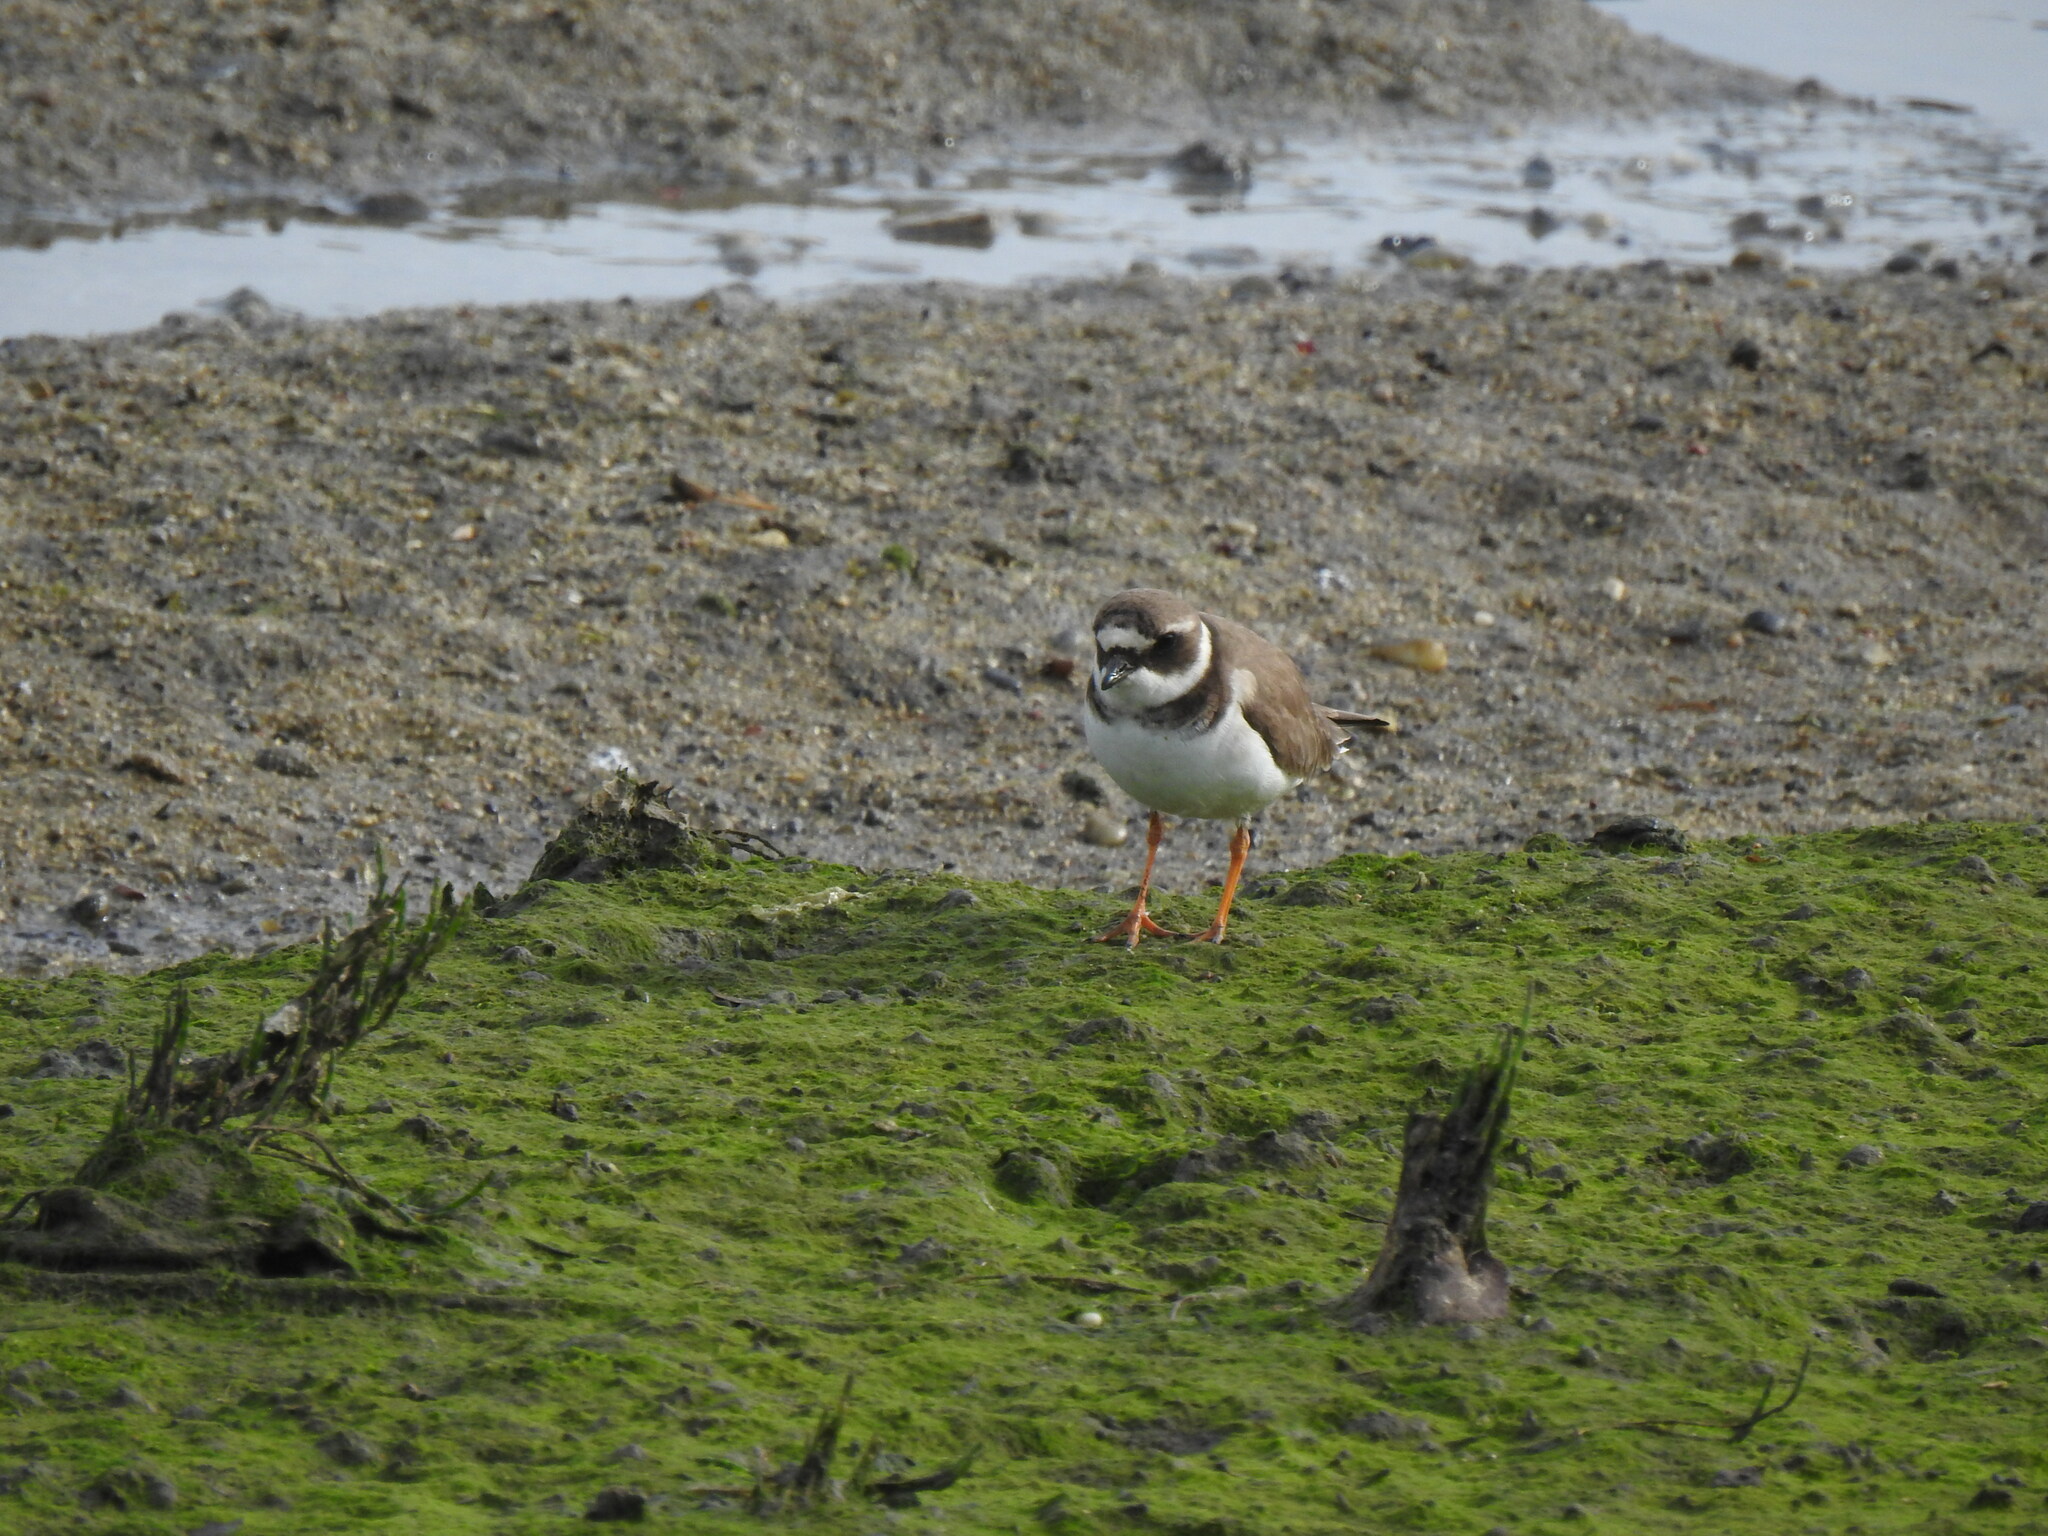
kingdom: Animalia
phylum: Chordata
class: Aves
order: Charadriiformes
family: Charadriidae
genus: Charadrius
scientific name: Charadrius hiaticula
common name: Common ringed plover
